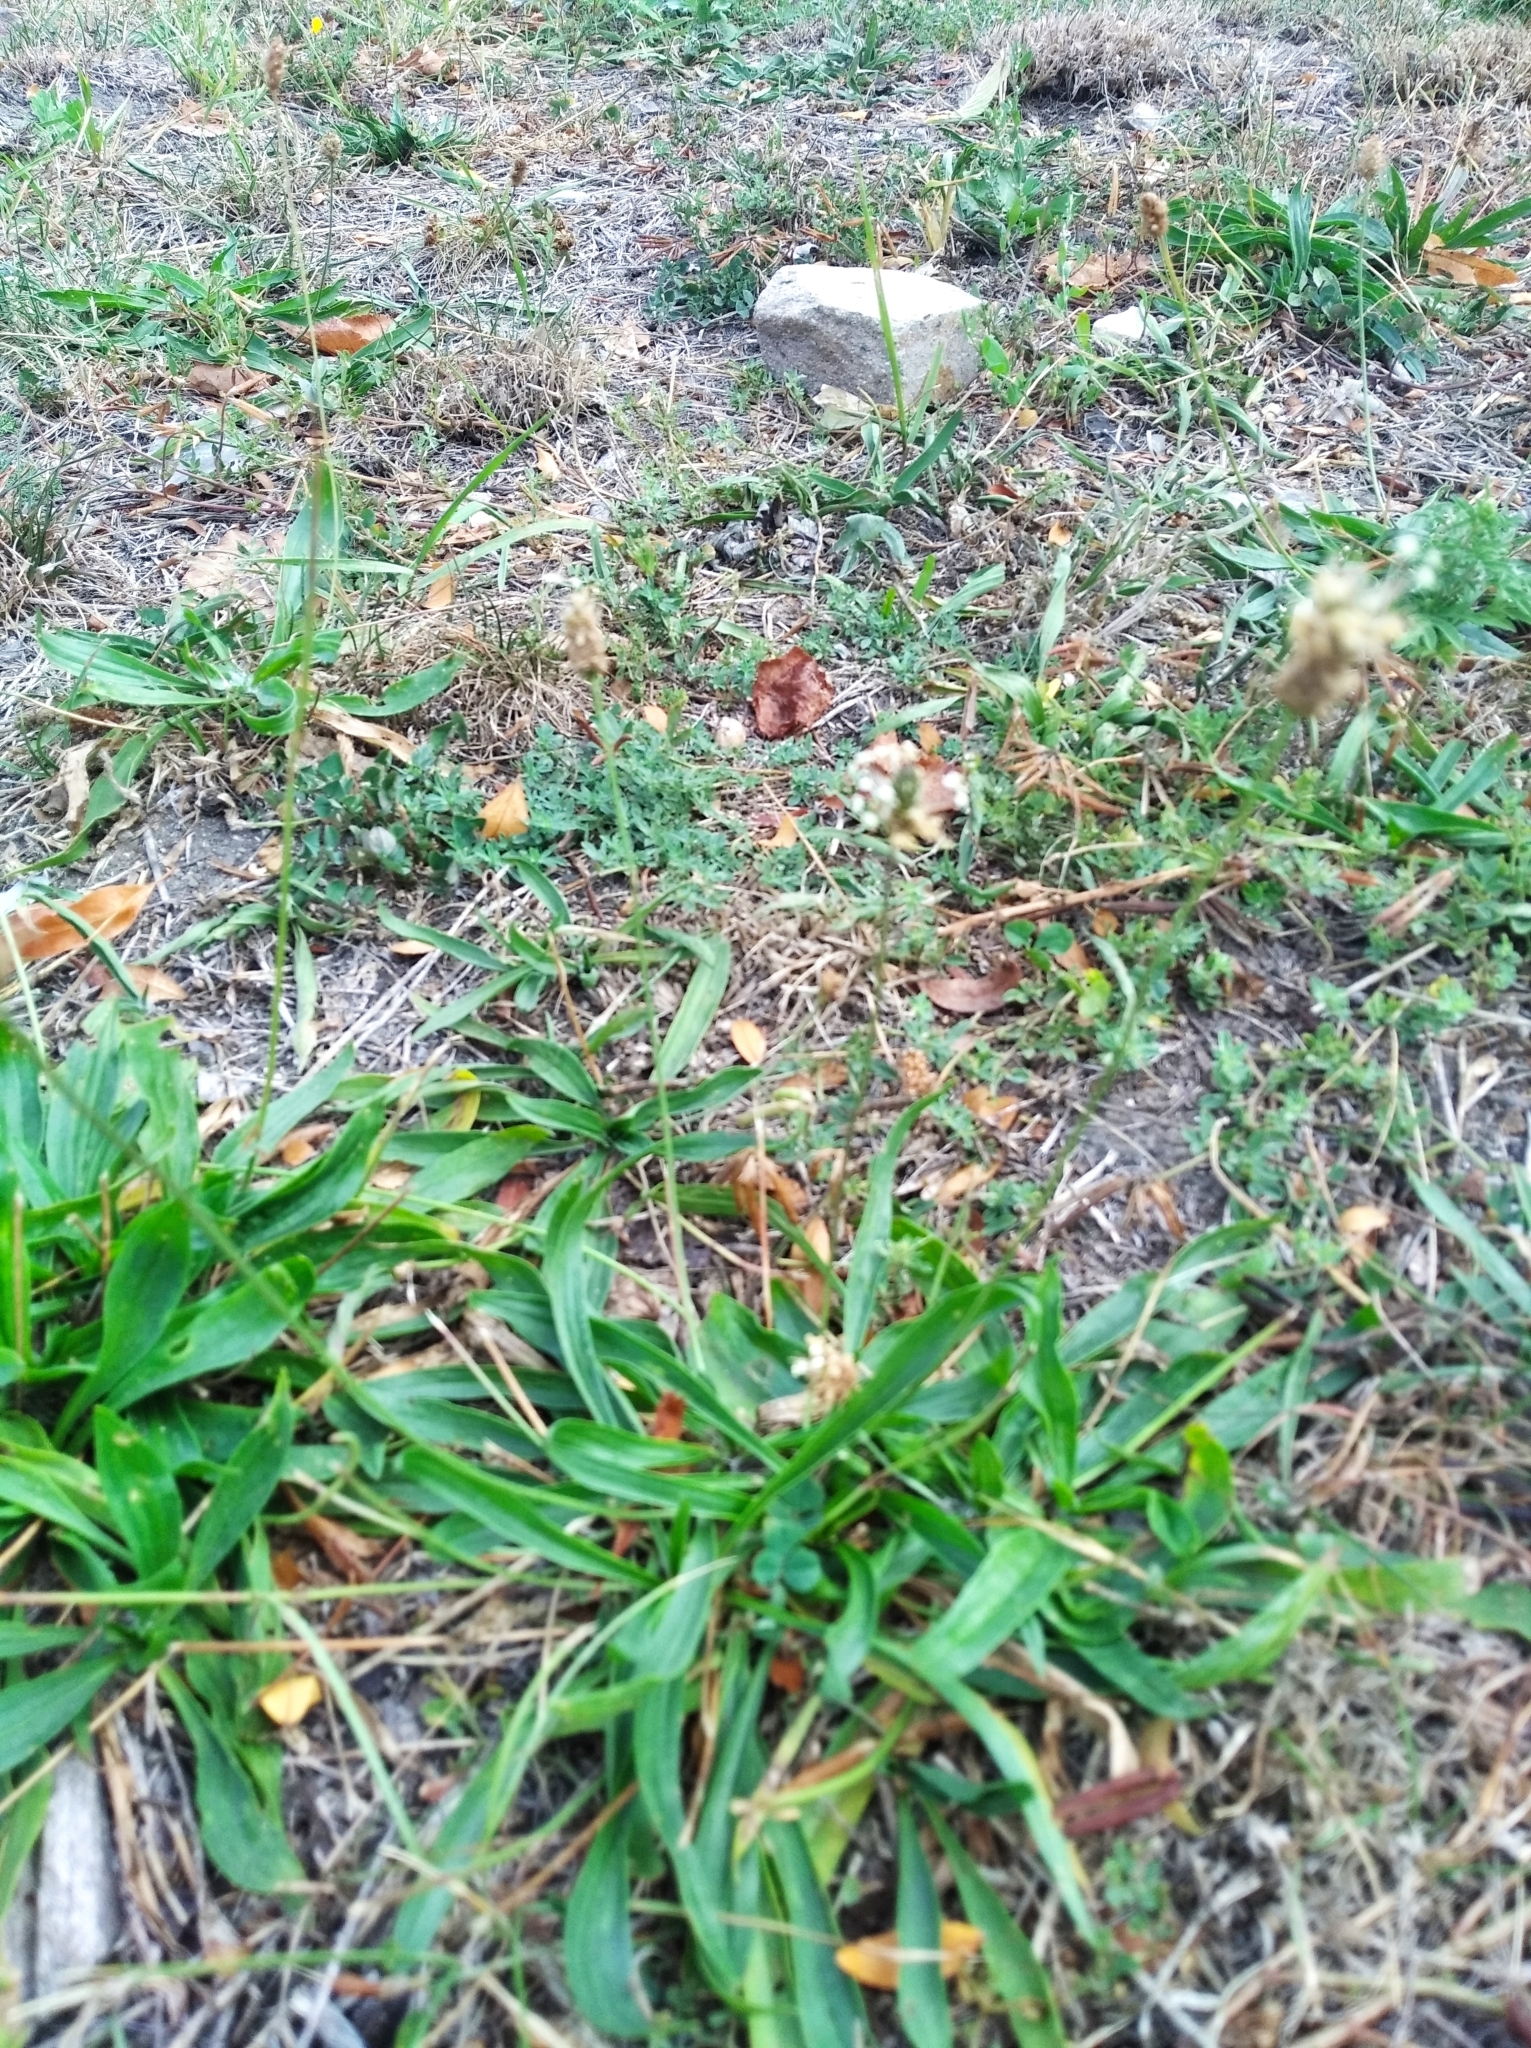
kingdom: Plantae
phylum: Tracheophyta
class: Magnoliopsida
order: Lamiales
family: Plantaginaceae
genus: Plantago
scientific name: Plantago lanceolata
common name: Ribwort plantain
